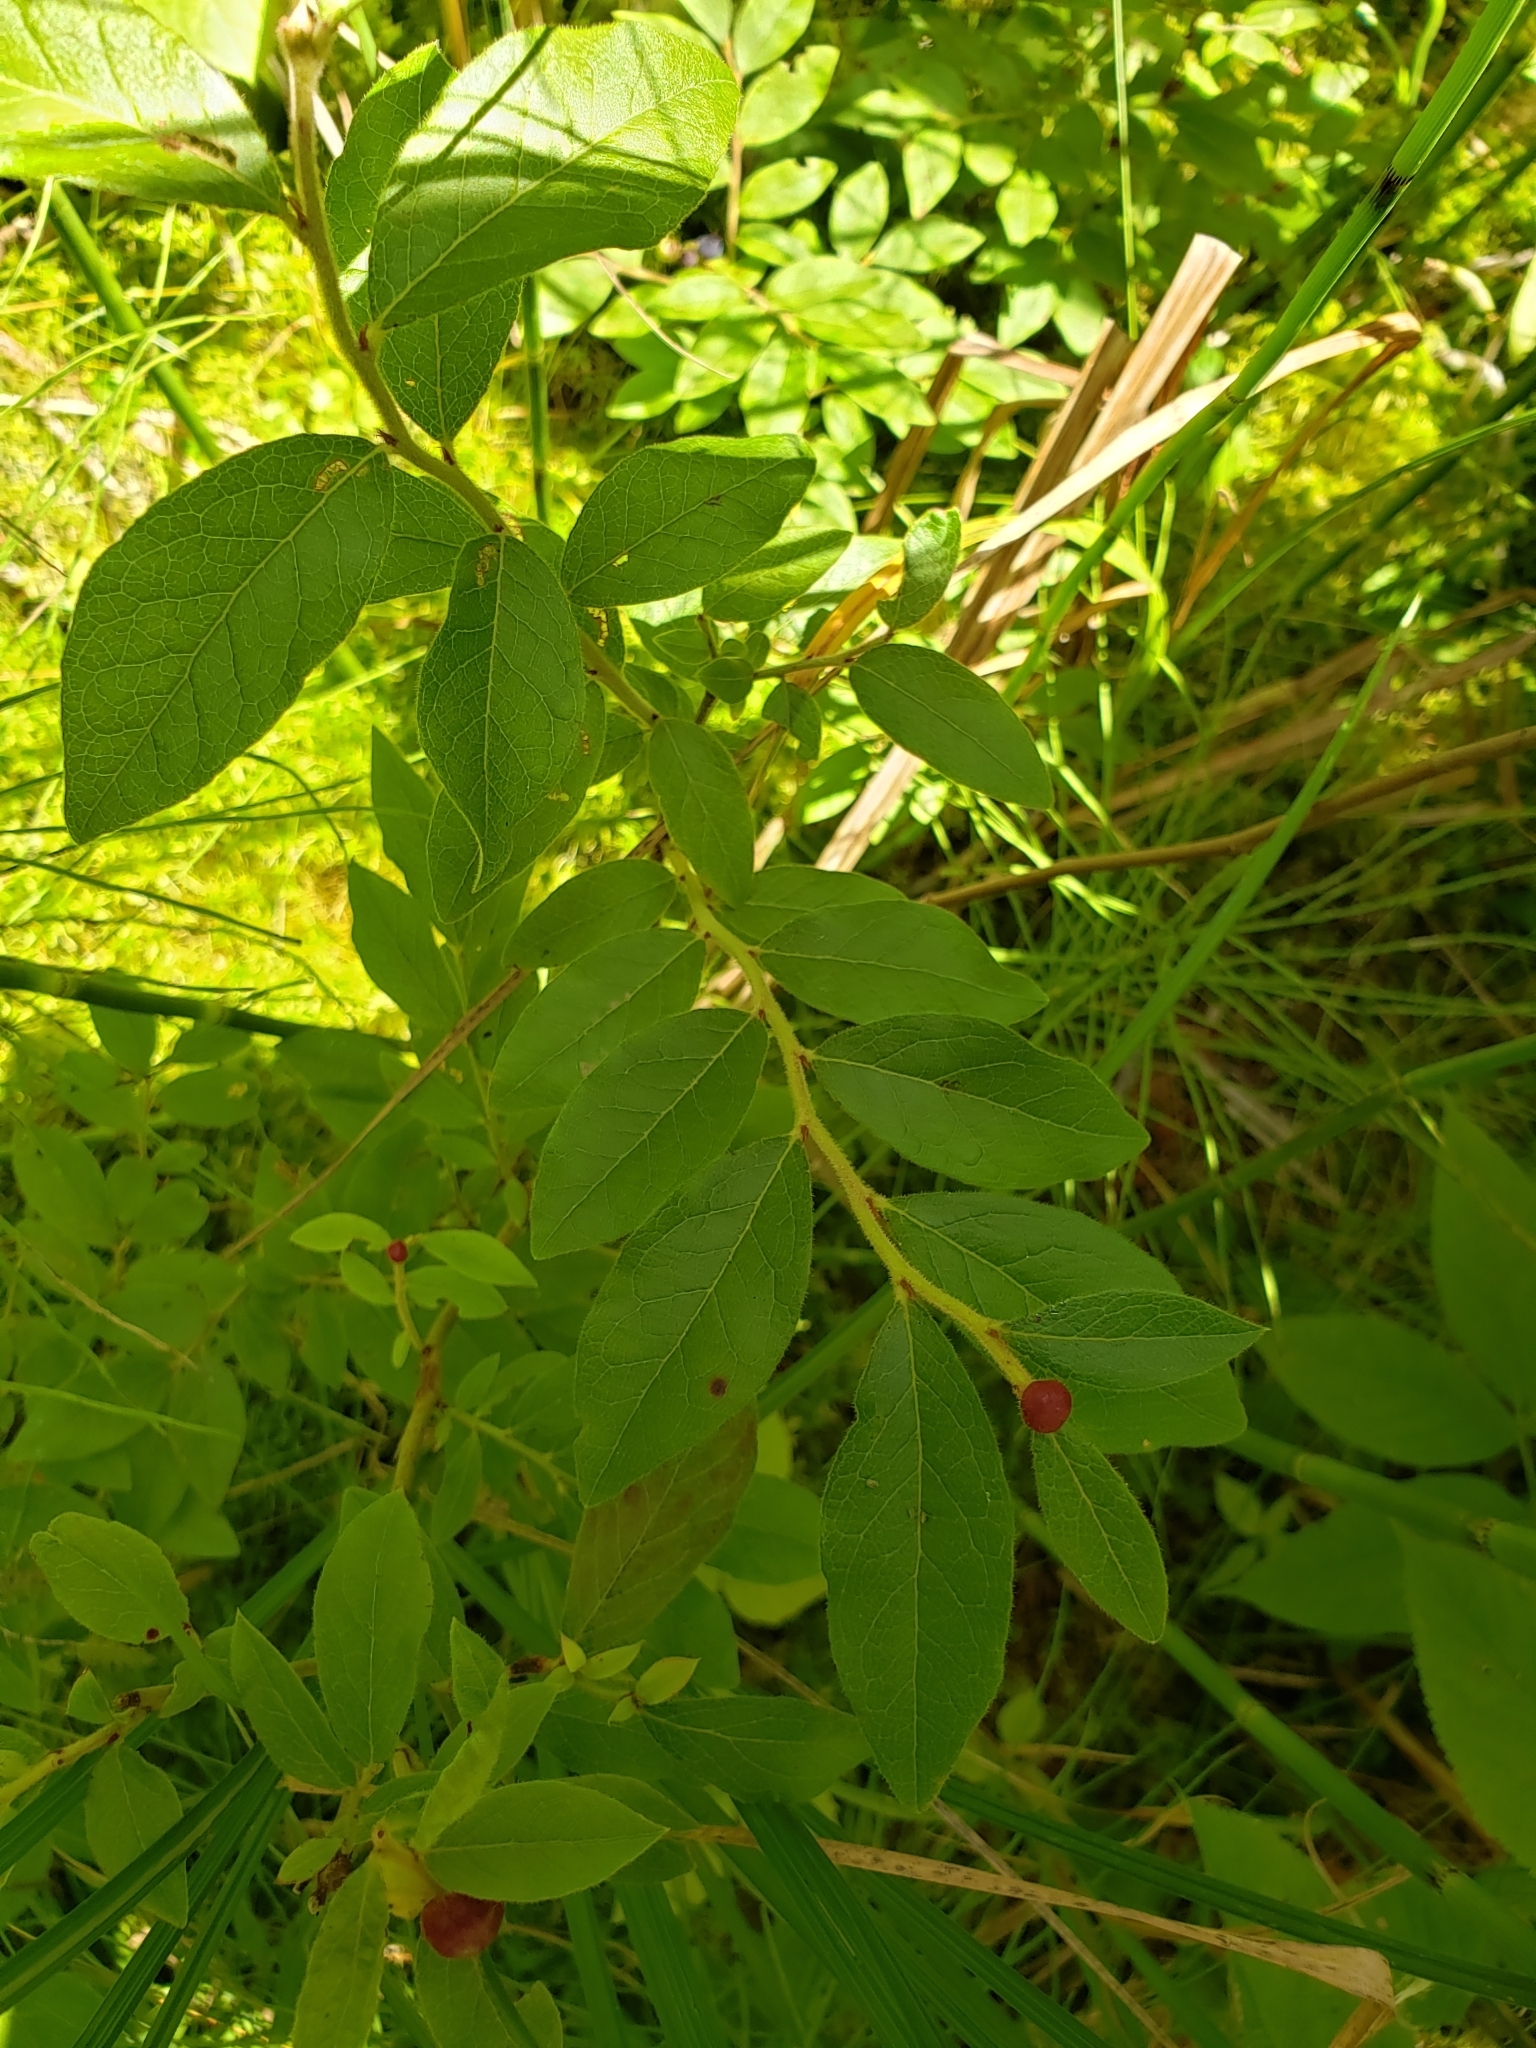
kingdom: Animalia
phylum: Arthropoda
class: Insecta
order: Hymenoptera
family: Pteromalidae
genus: Hemadas
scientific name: Hemadas nubilipennis
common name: Blueberry stem gall wasp
